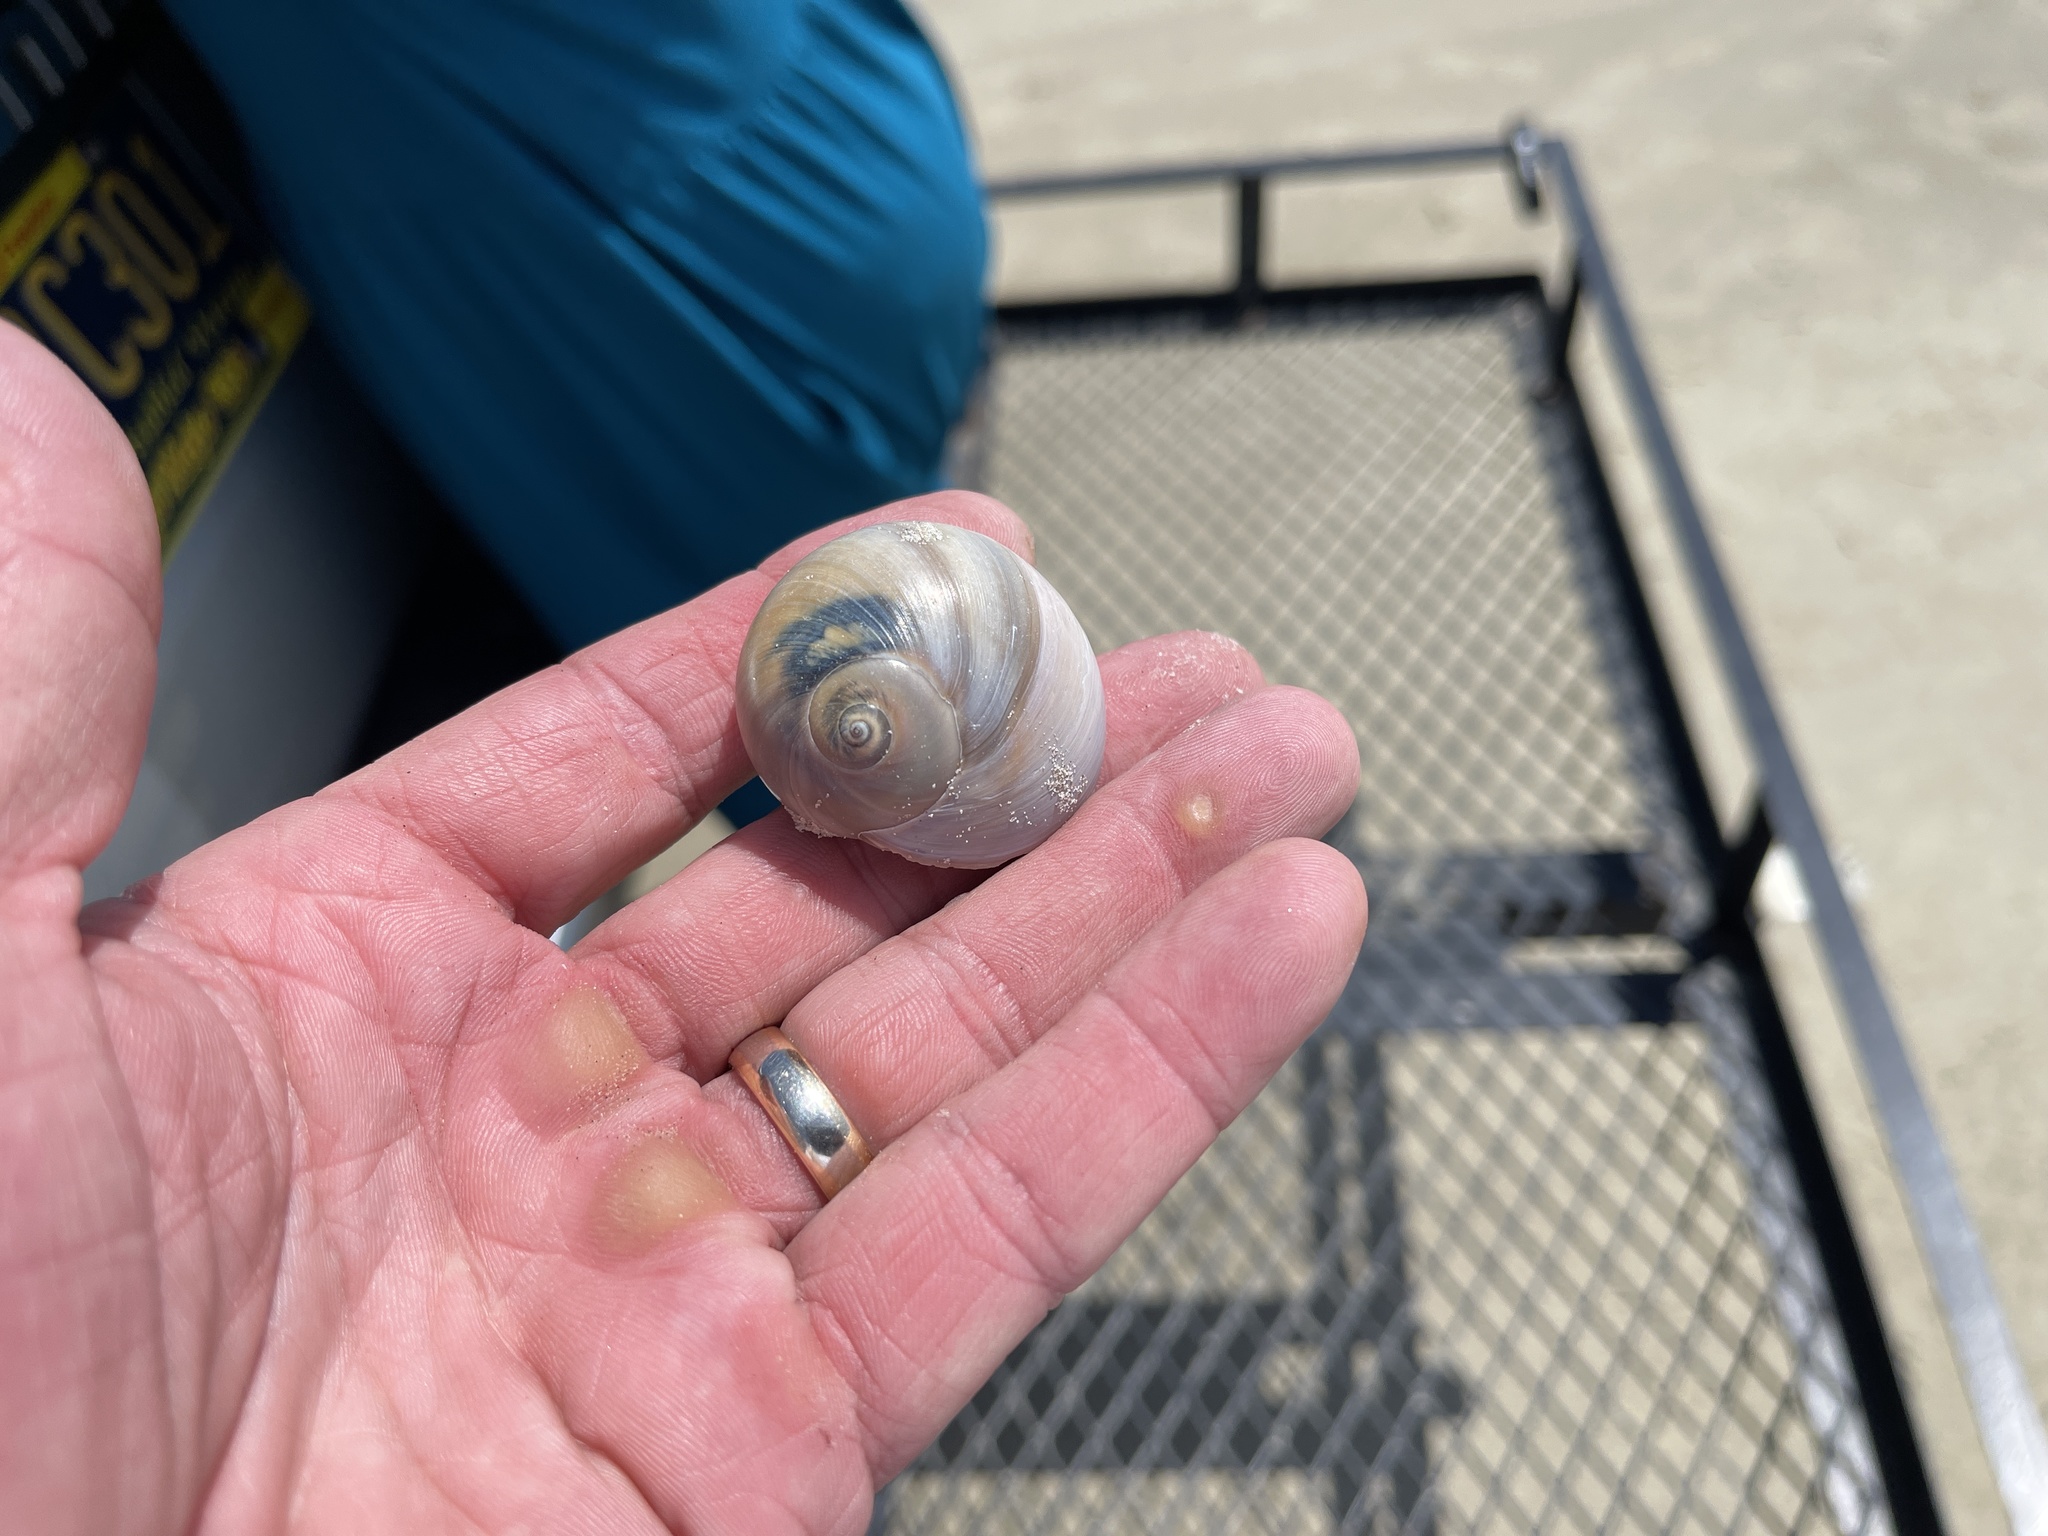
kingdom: Animalia
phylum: Mollusca
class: Gastropoda
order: Littorinimorpha
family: Naticidae
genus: Neverita
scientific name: Neverita duplicata
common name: Lobed moonsnail
